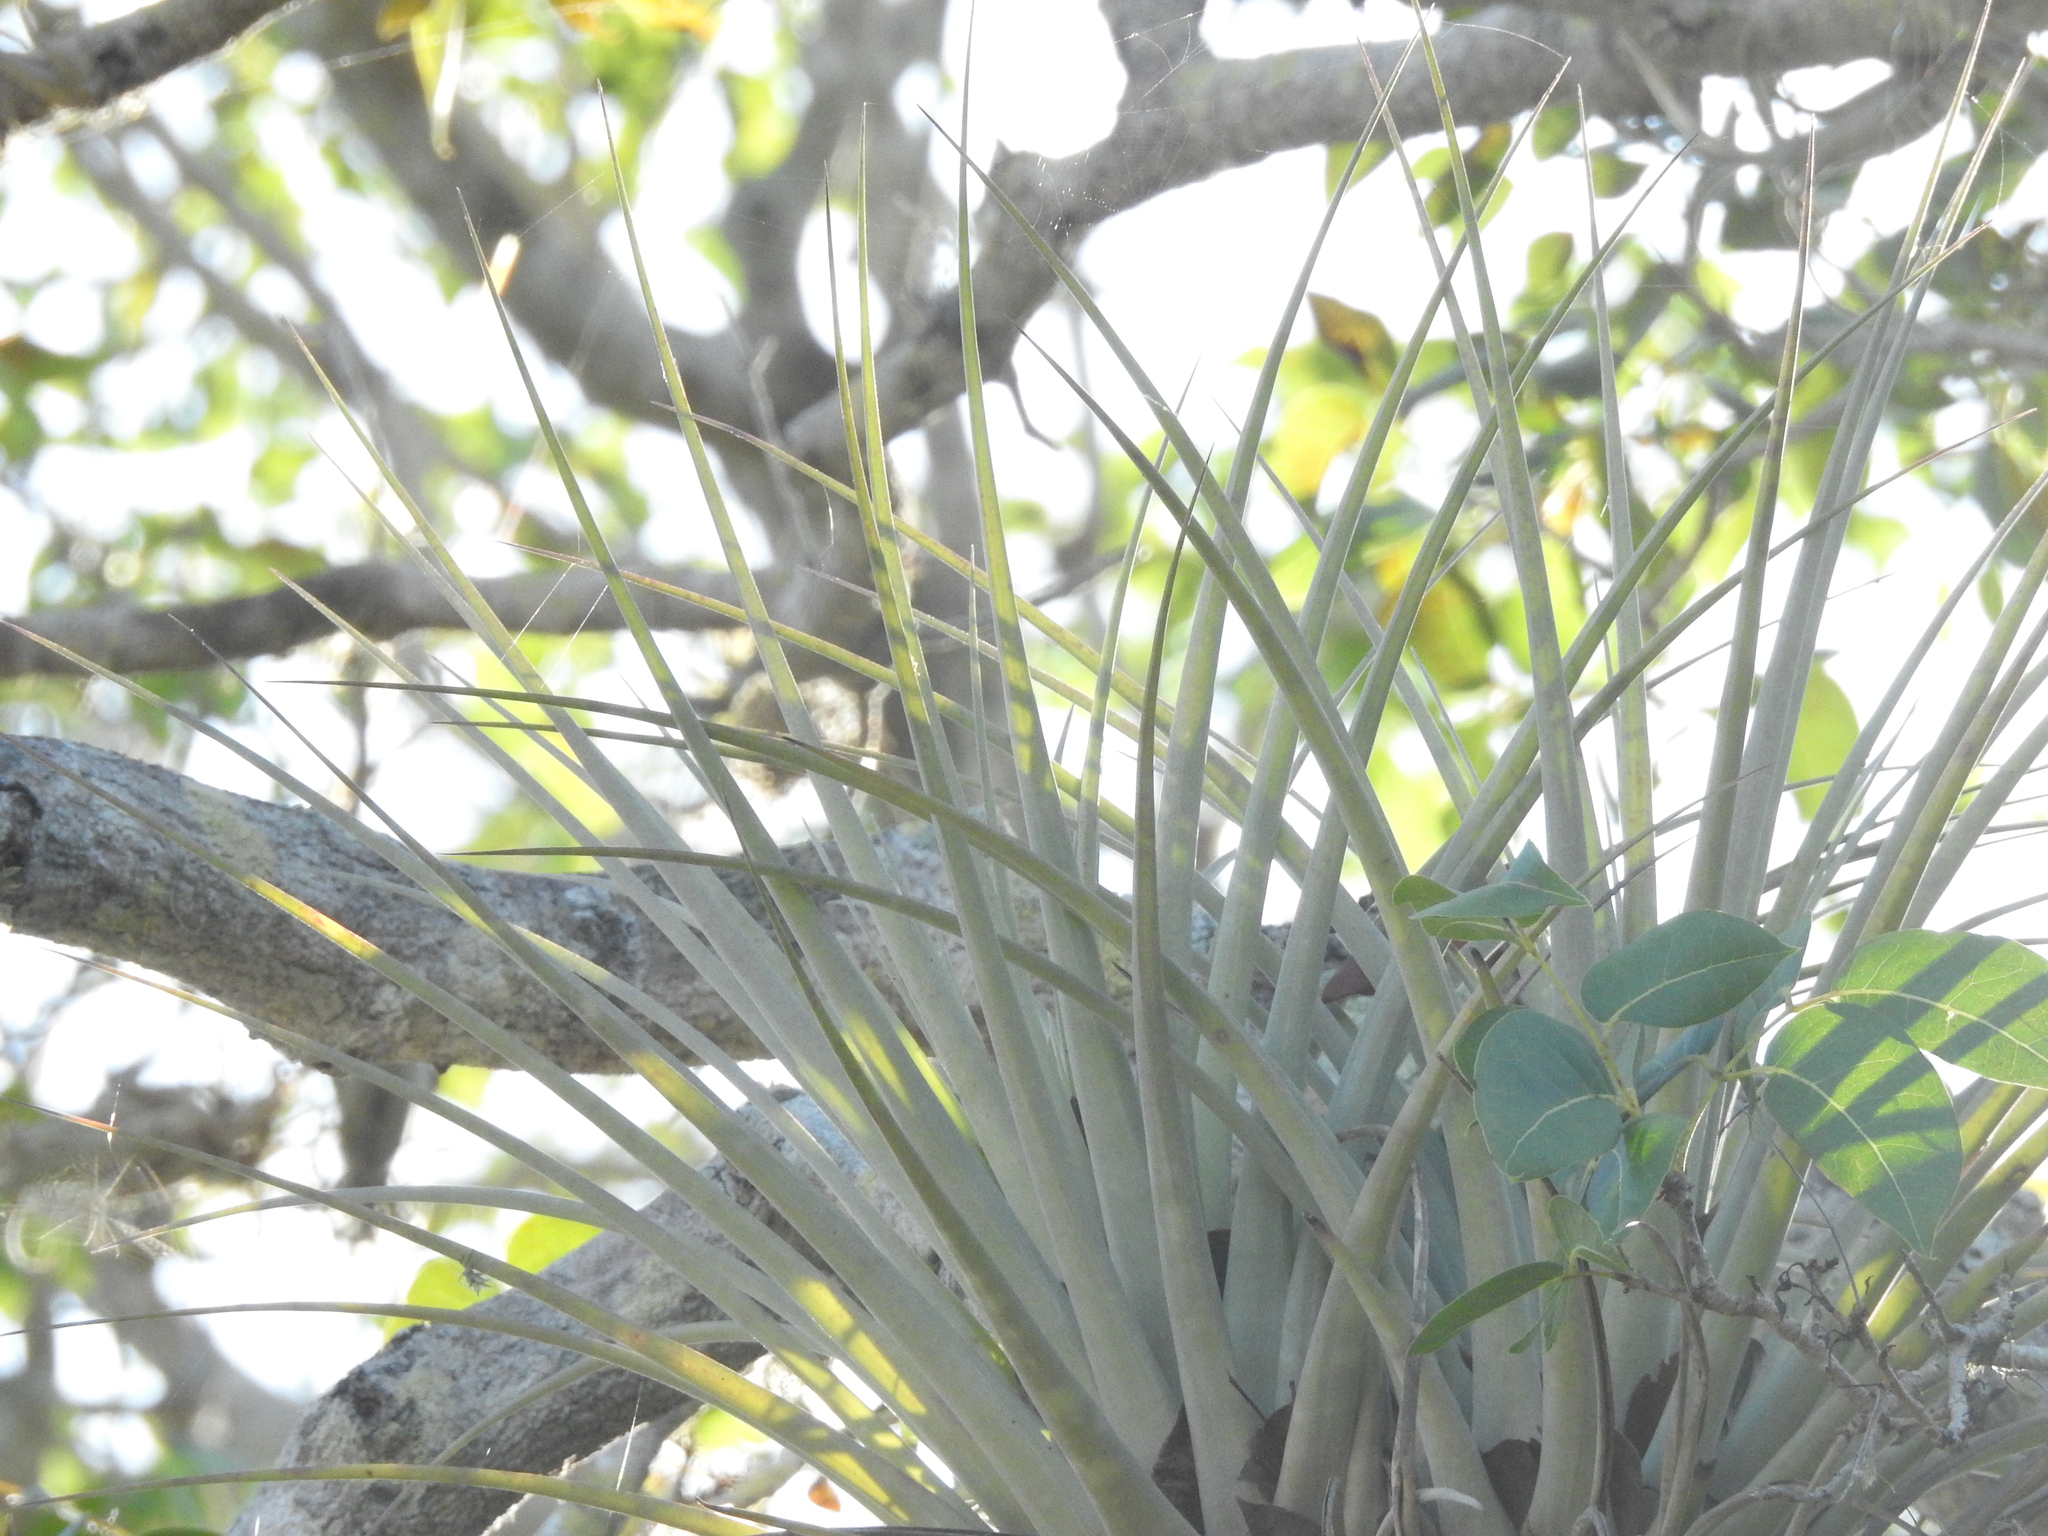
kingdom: Plantae
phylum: Tracheophyta
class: Liliopsida
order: Poales
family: Bromeliaceae
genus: Tillandsia
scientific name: Tillandsia fasciculata
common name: Giant airplant
